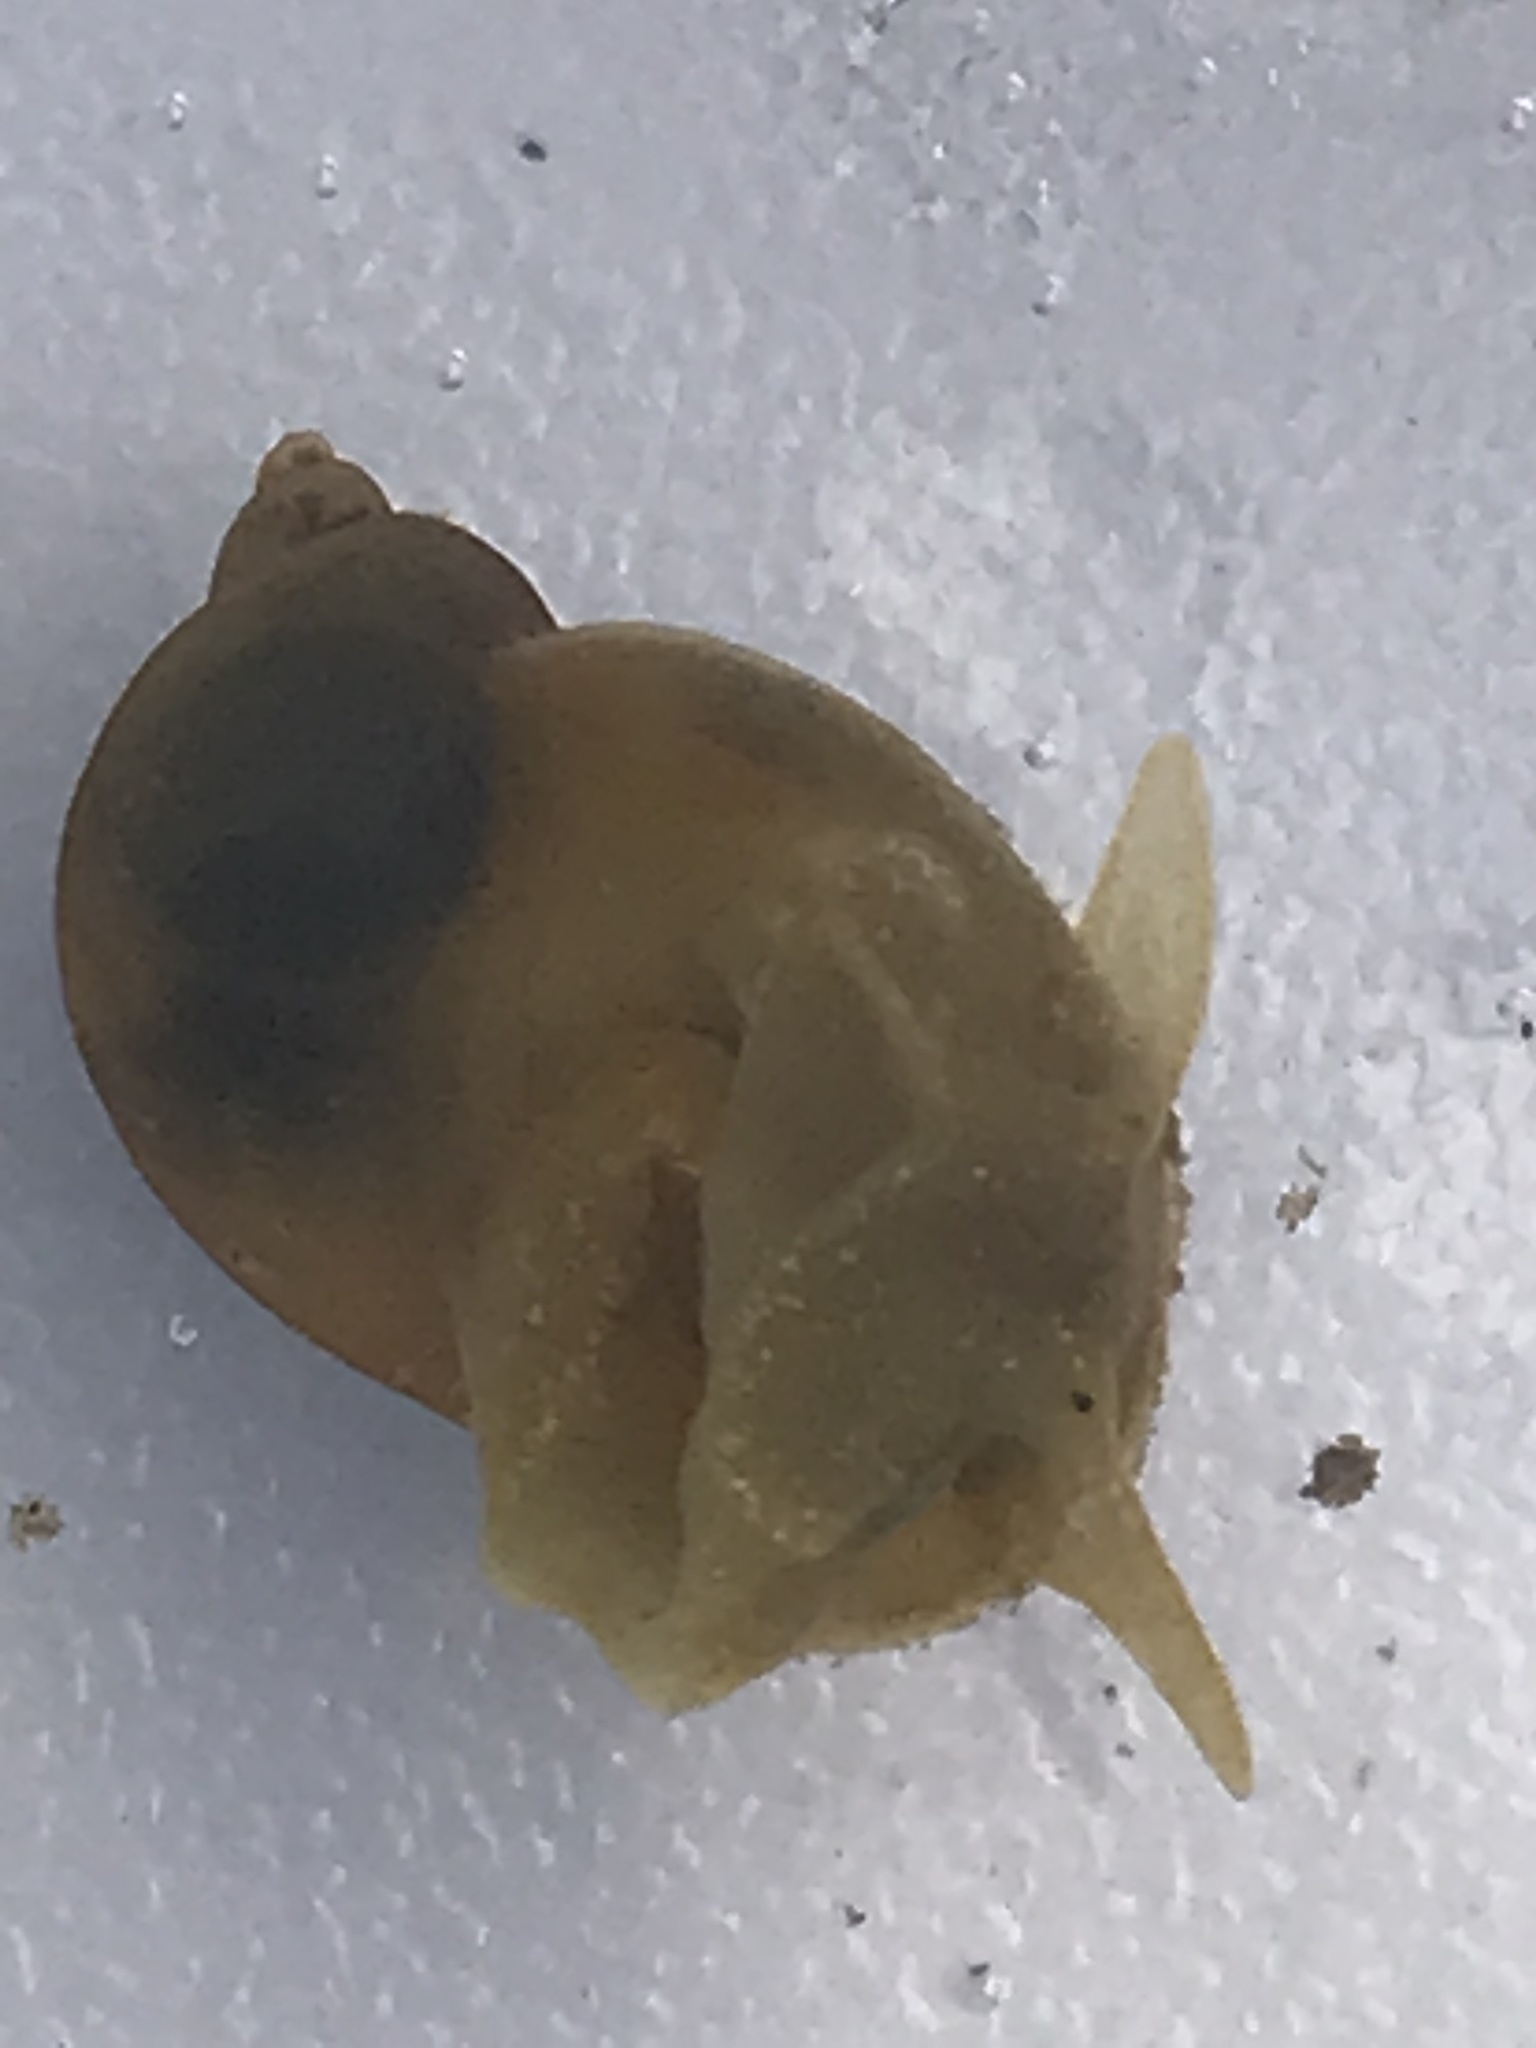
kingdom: Animalia
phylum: Mollusca
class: Gastropoda
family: Lymnaeidae
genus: Radix
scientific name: Radix auricularia
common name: Ear pond snail
